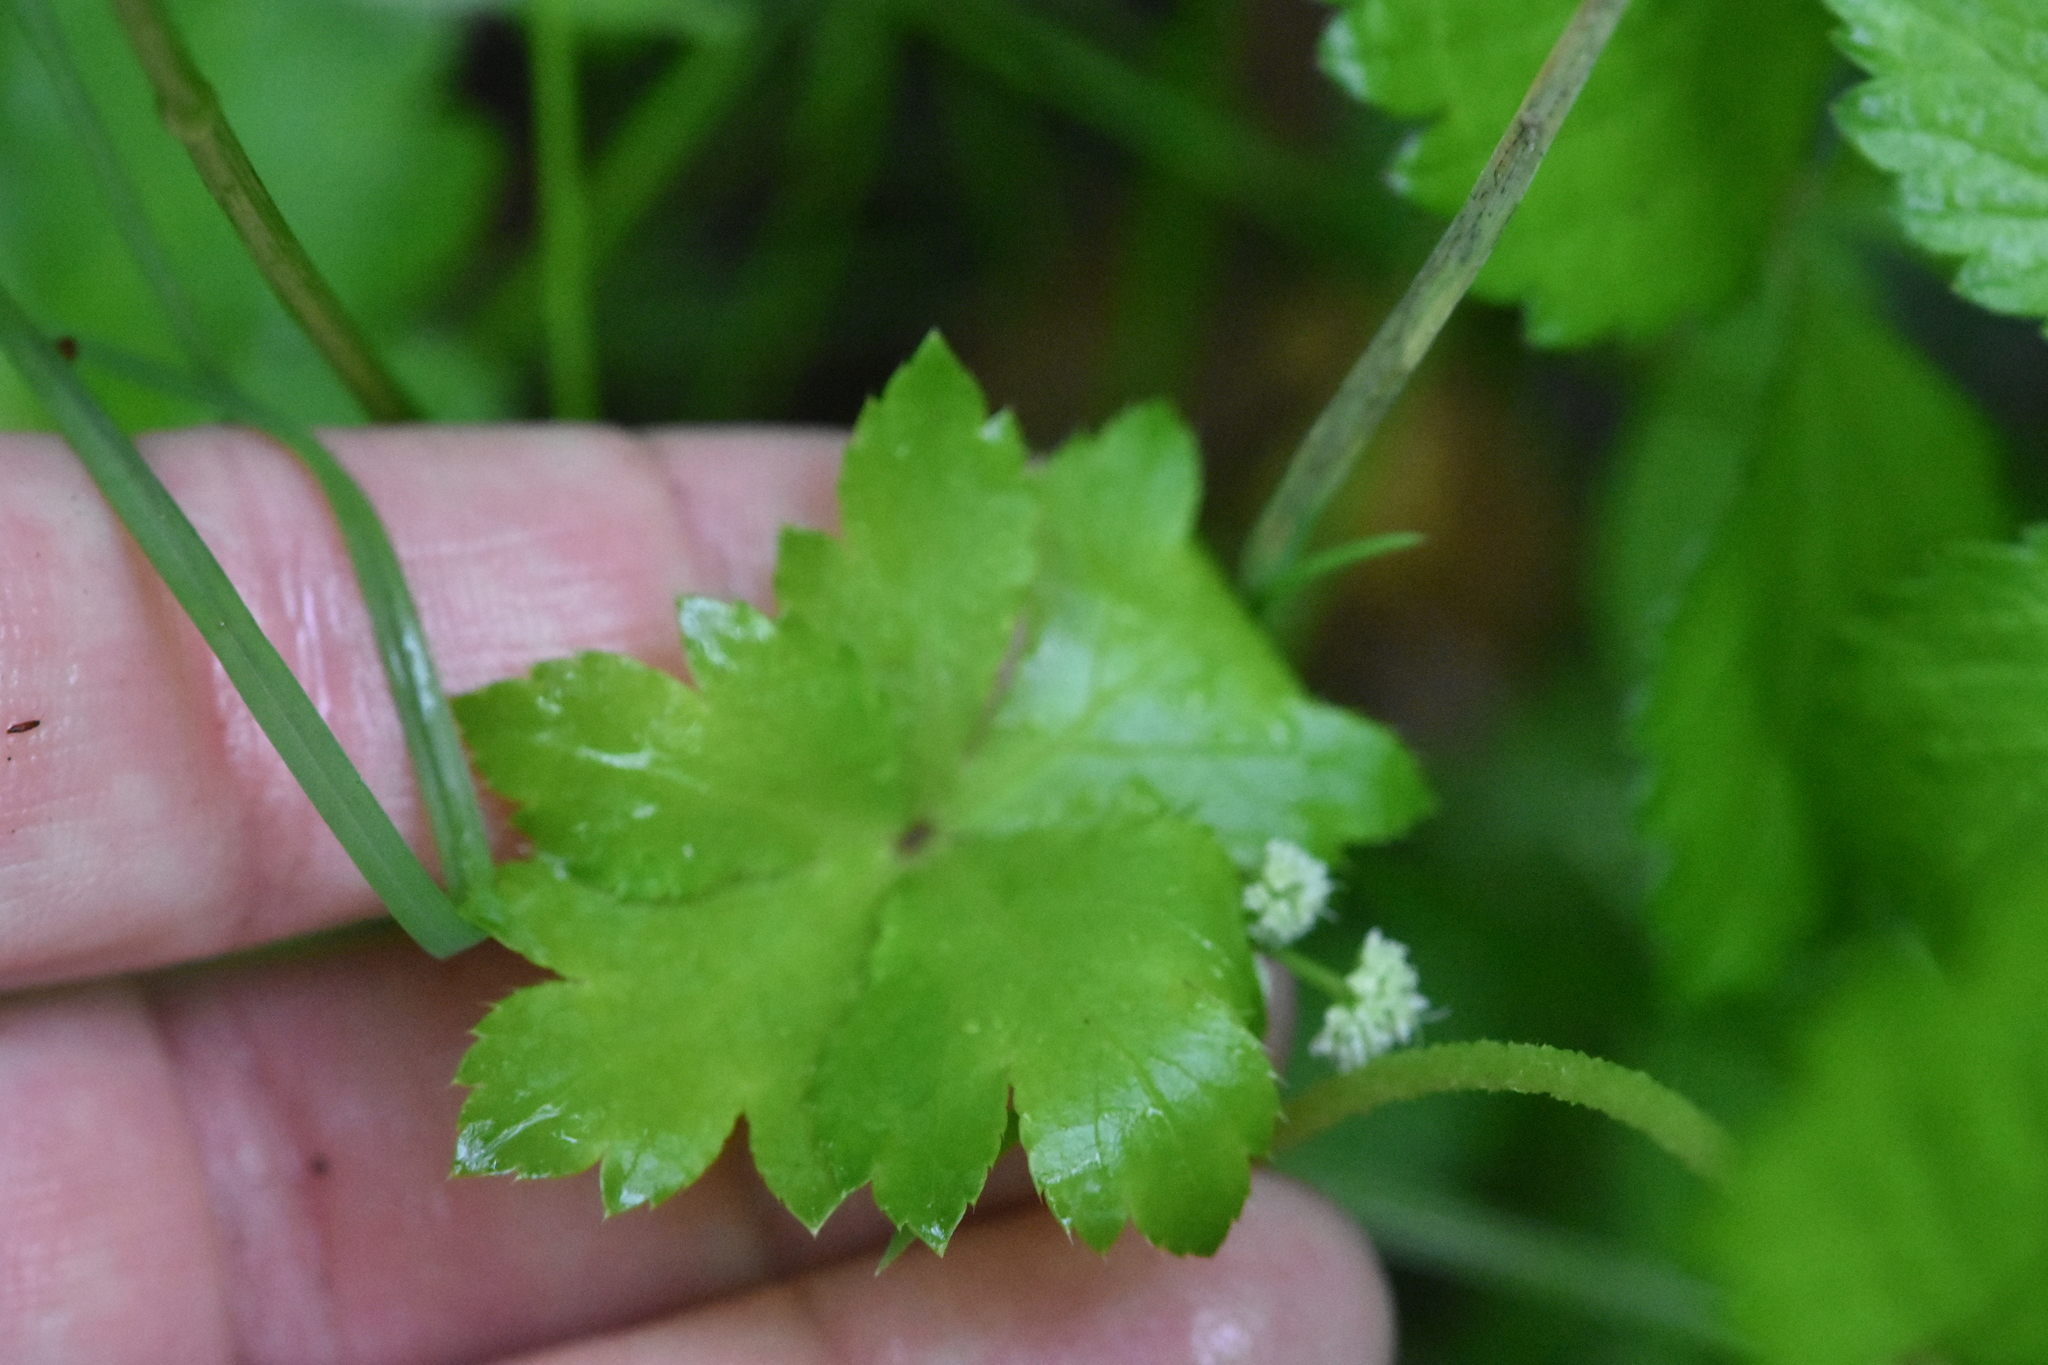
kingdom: Plantae
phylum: Tracheophyta
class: Magnoliopsida
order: Apiales
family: Apiaceae
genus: Sanicula
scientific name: Sanicula europaea
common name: Sanicle
